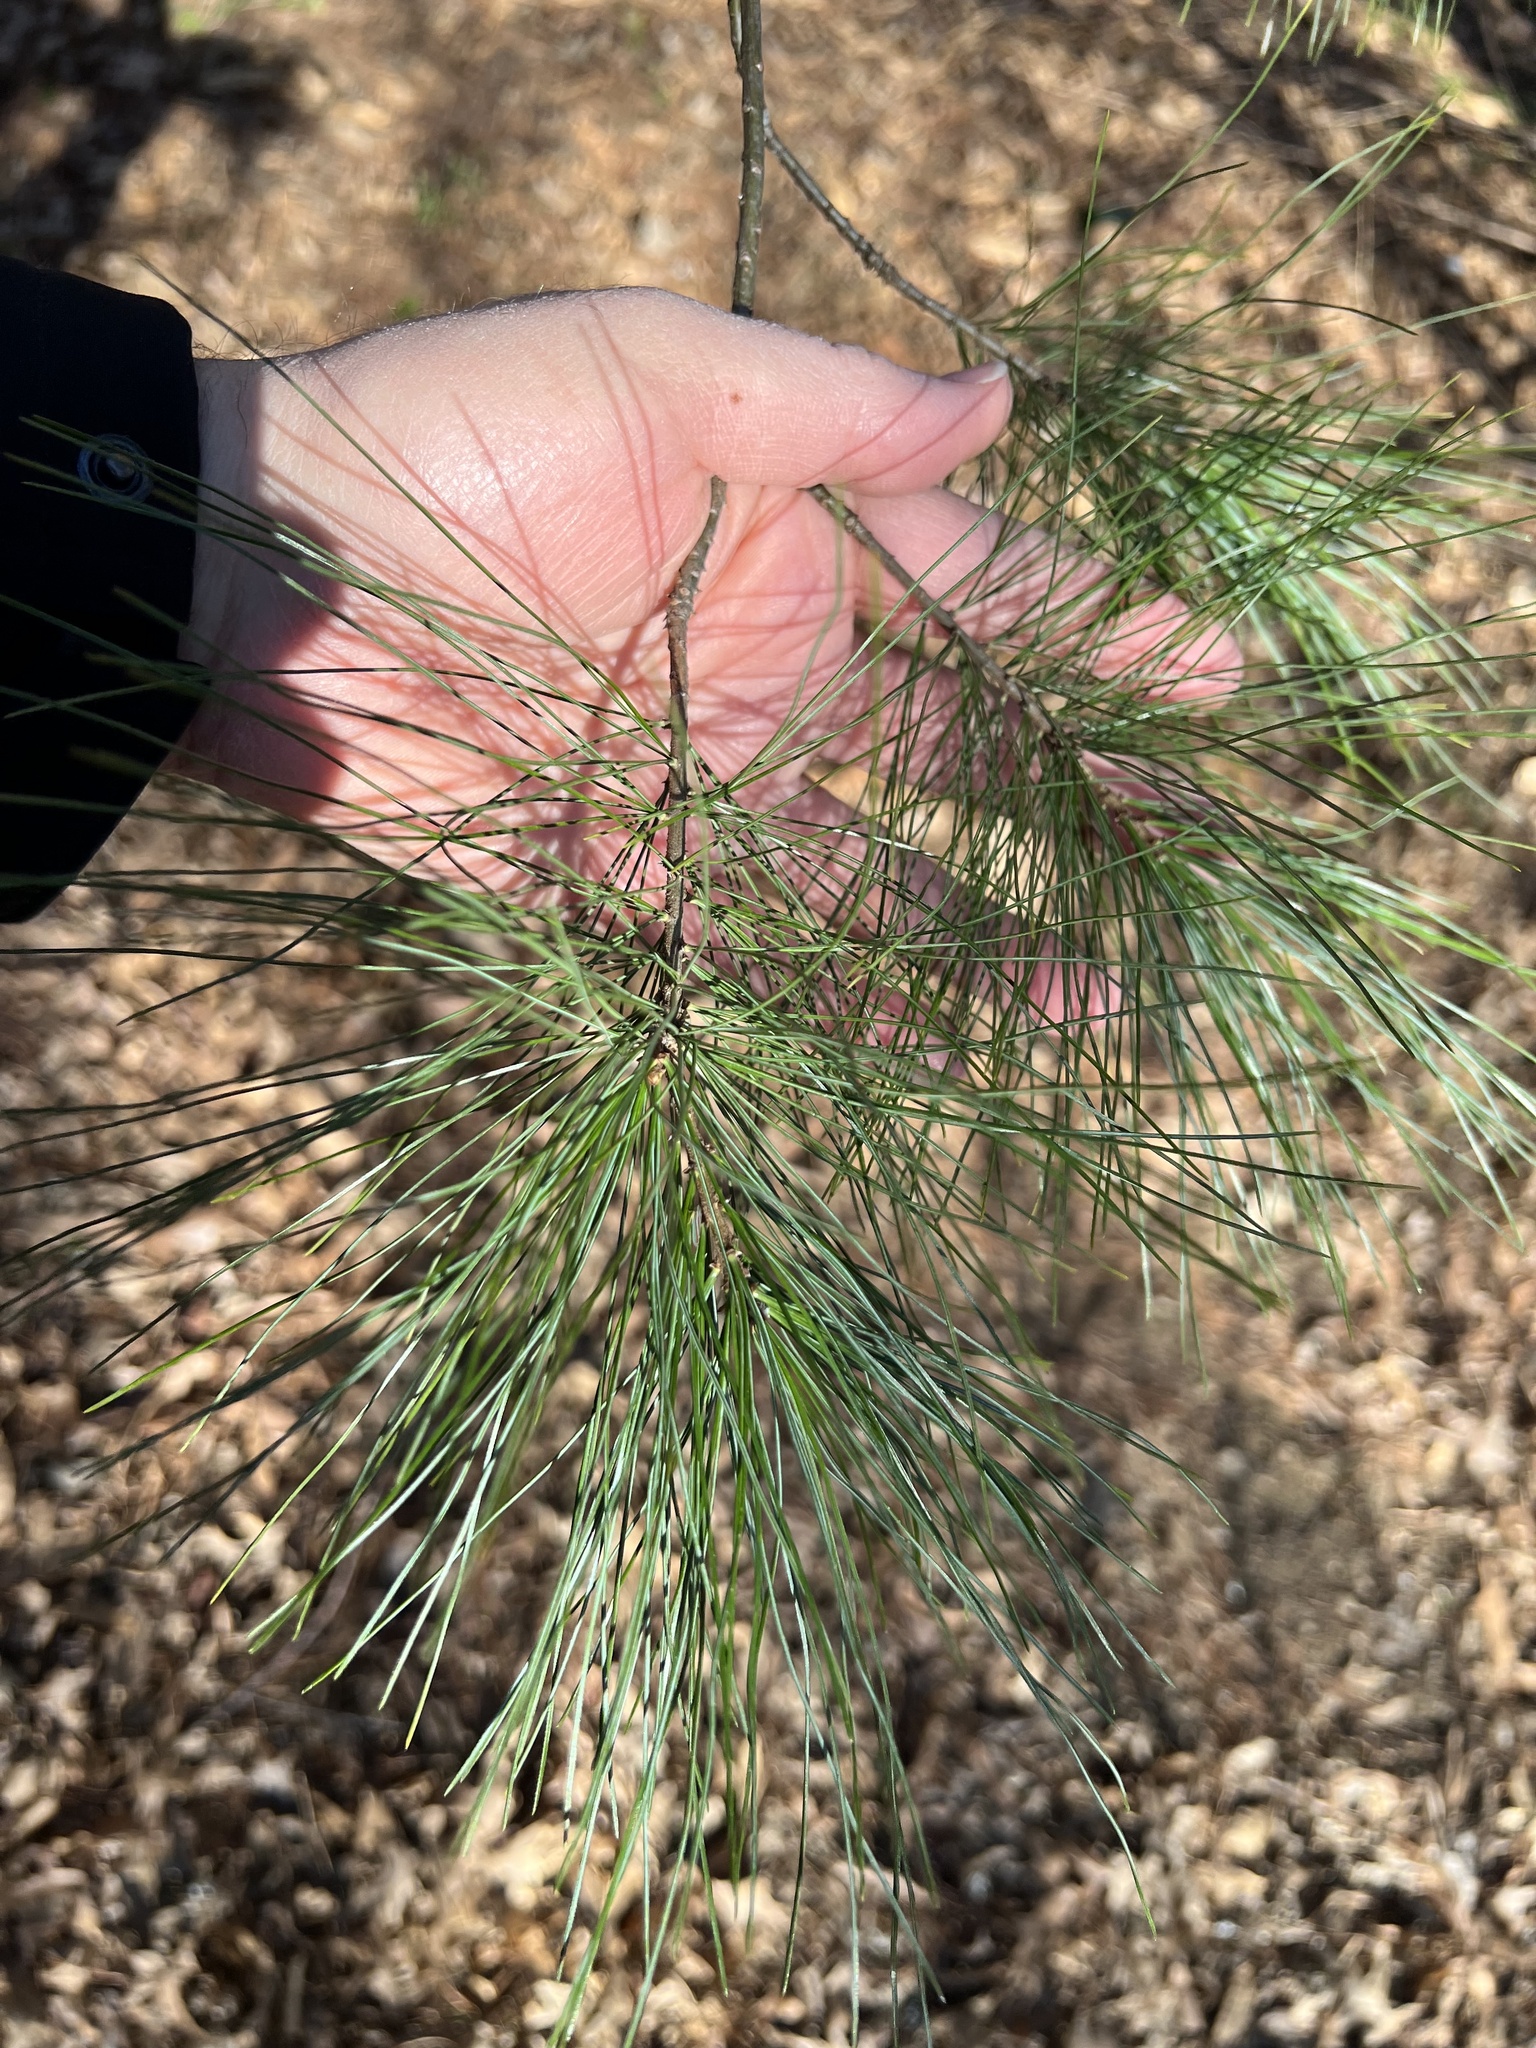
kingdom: Plantae
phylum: Tracheophyta
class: Pinopsida
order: Pinales
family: Pinaceae
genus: Pinus
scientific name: Pinus strobus
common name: Weymouth pine
